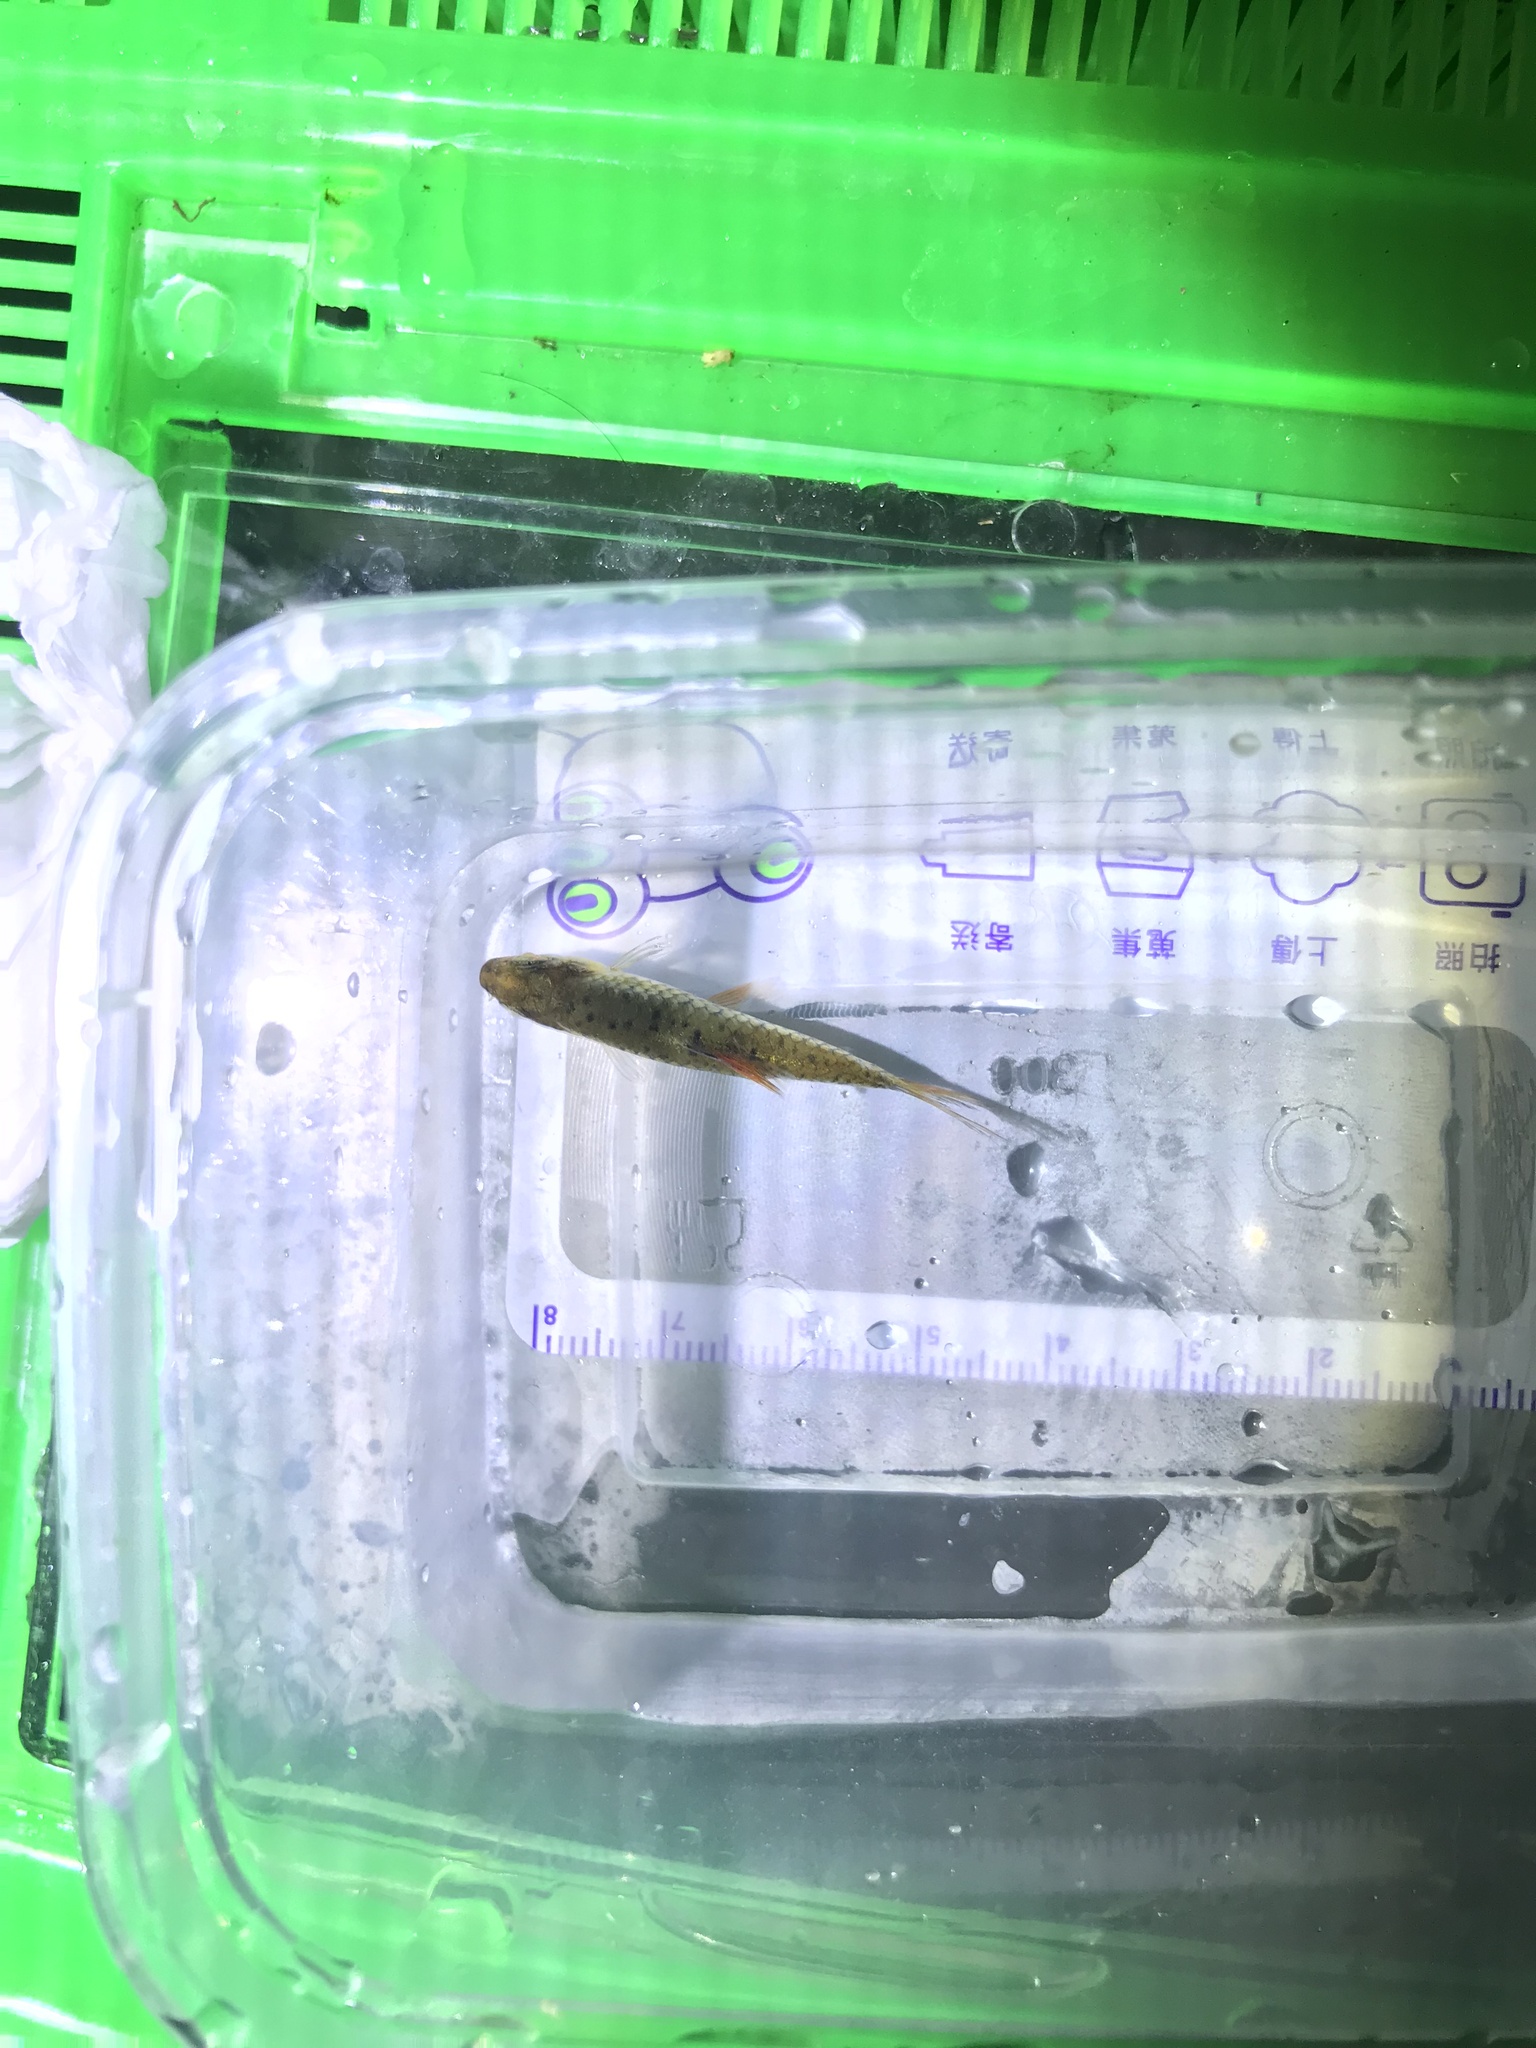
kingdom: Animalia
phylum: Chordata
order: Cypriniformes
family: Cyprinidae
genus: Barbodes
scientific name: Barbodes semifasciolatus
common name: Gold barb
